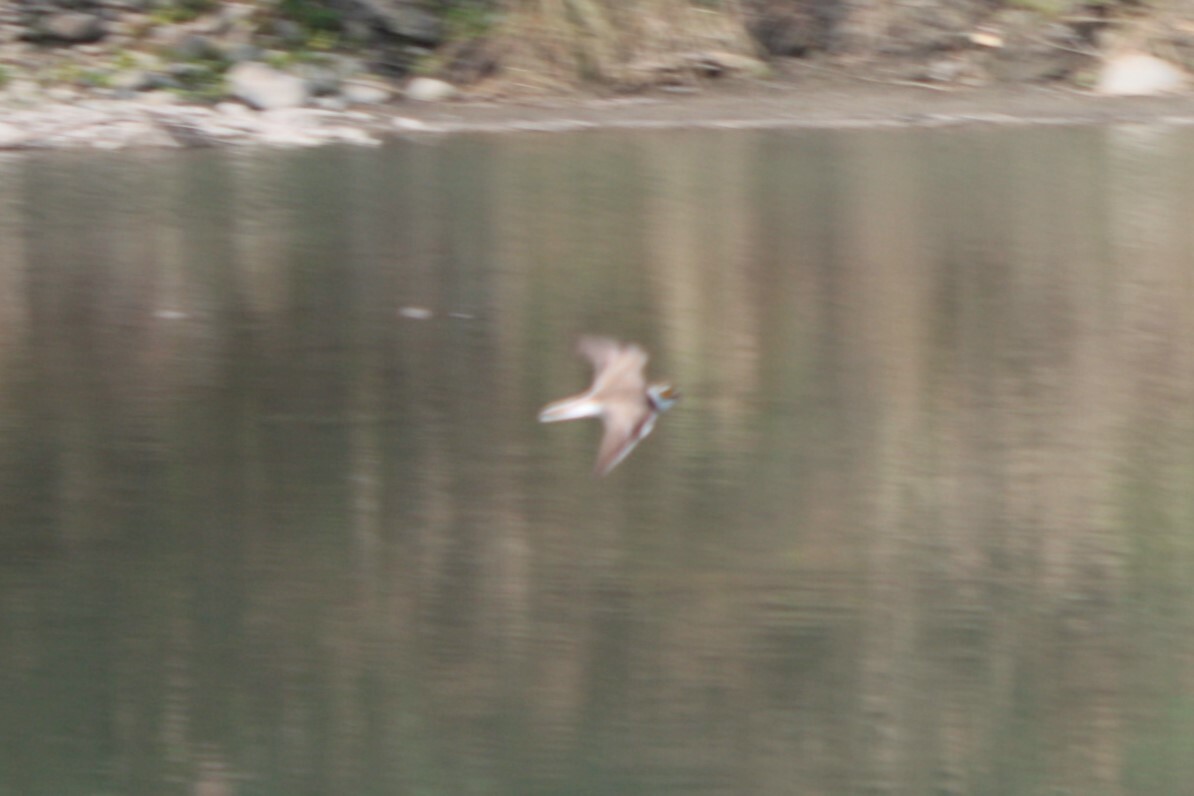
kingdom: Animalia
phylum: Chordata
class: Aves
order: Charadriiformes
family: Charadriidae
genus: Charadrius
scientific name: Charadrius dubius
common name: Little ringed plover
